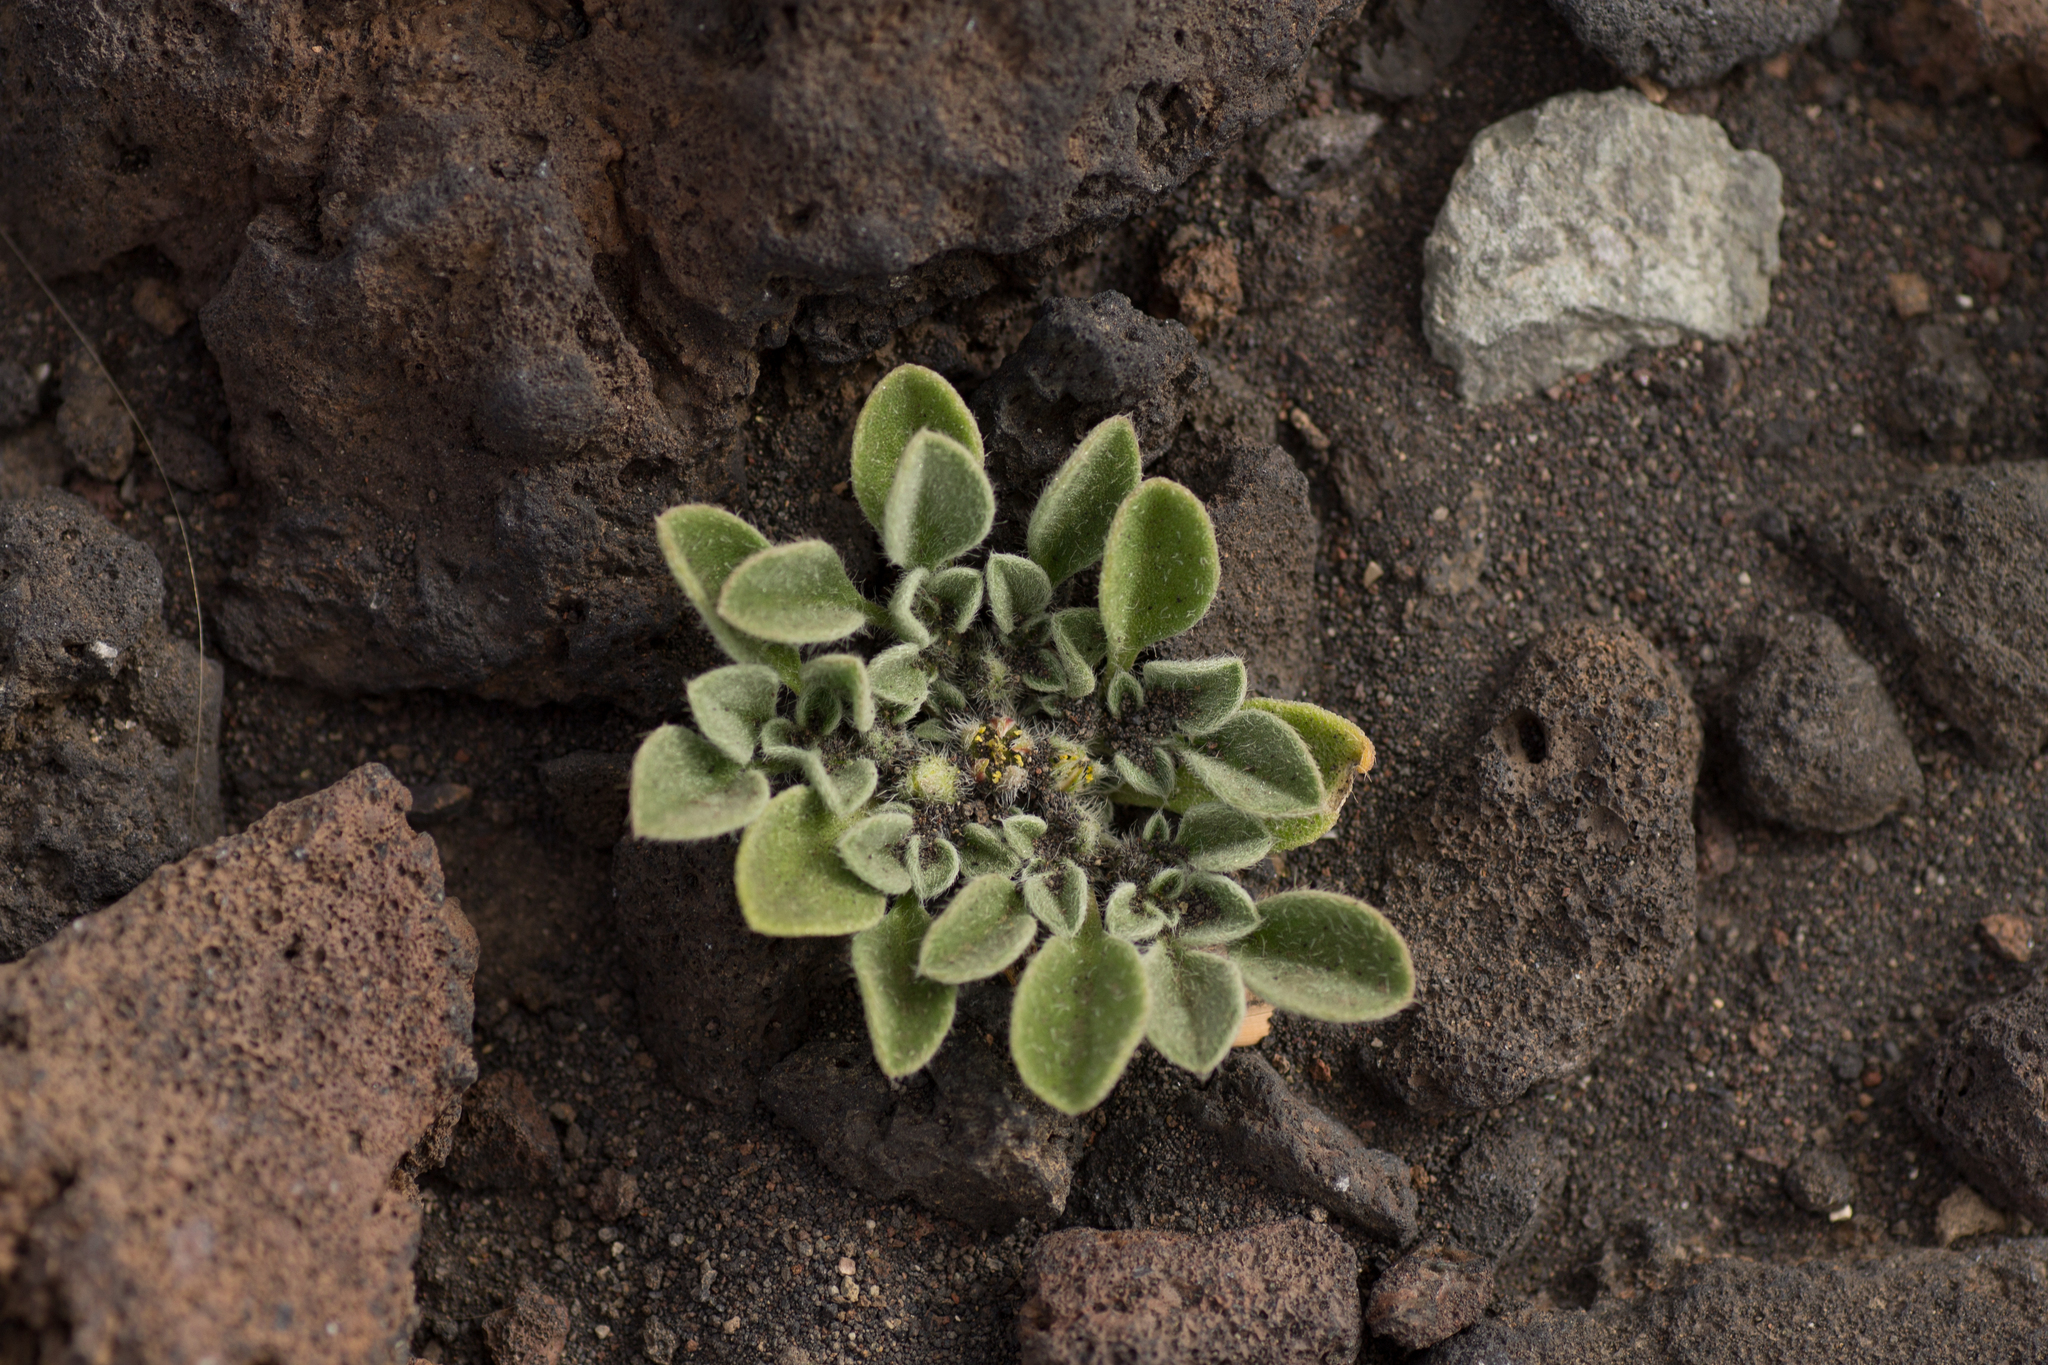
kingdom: Plantae
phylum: Tracheophyta
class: Magnoliopsida
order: Caryophyllales
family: Aizoaceae
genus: Aizoon
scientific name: Aizoon canariense
